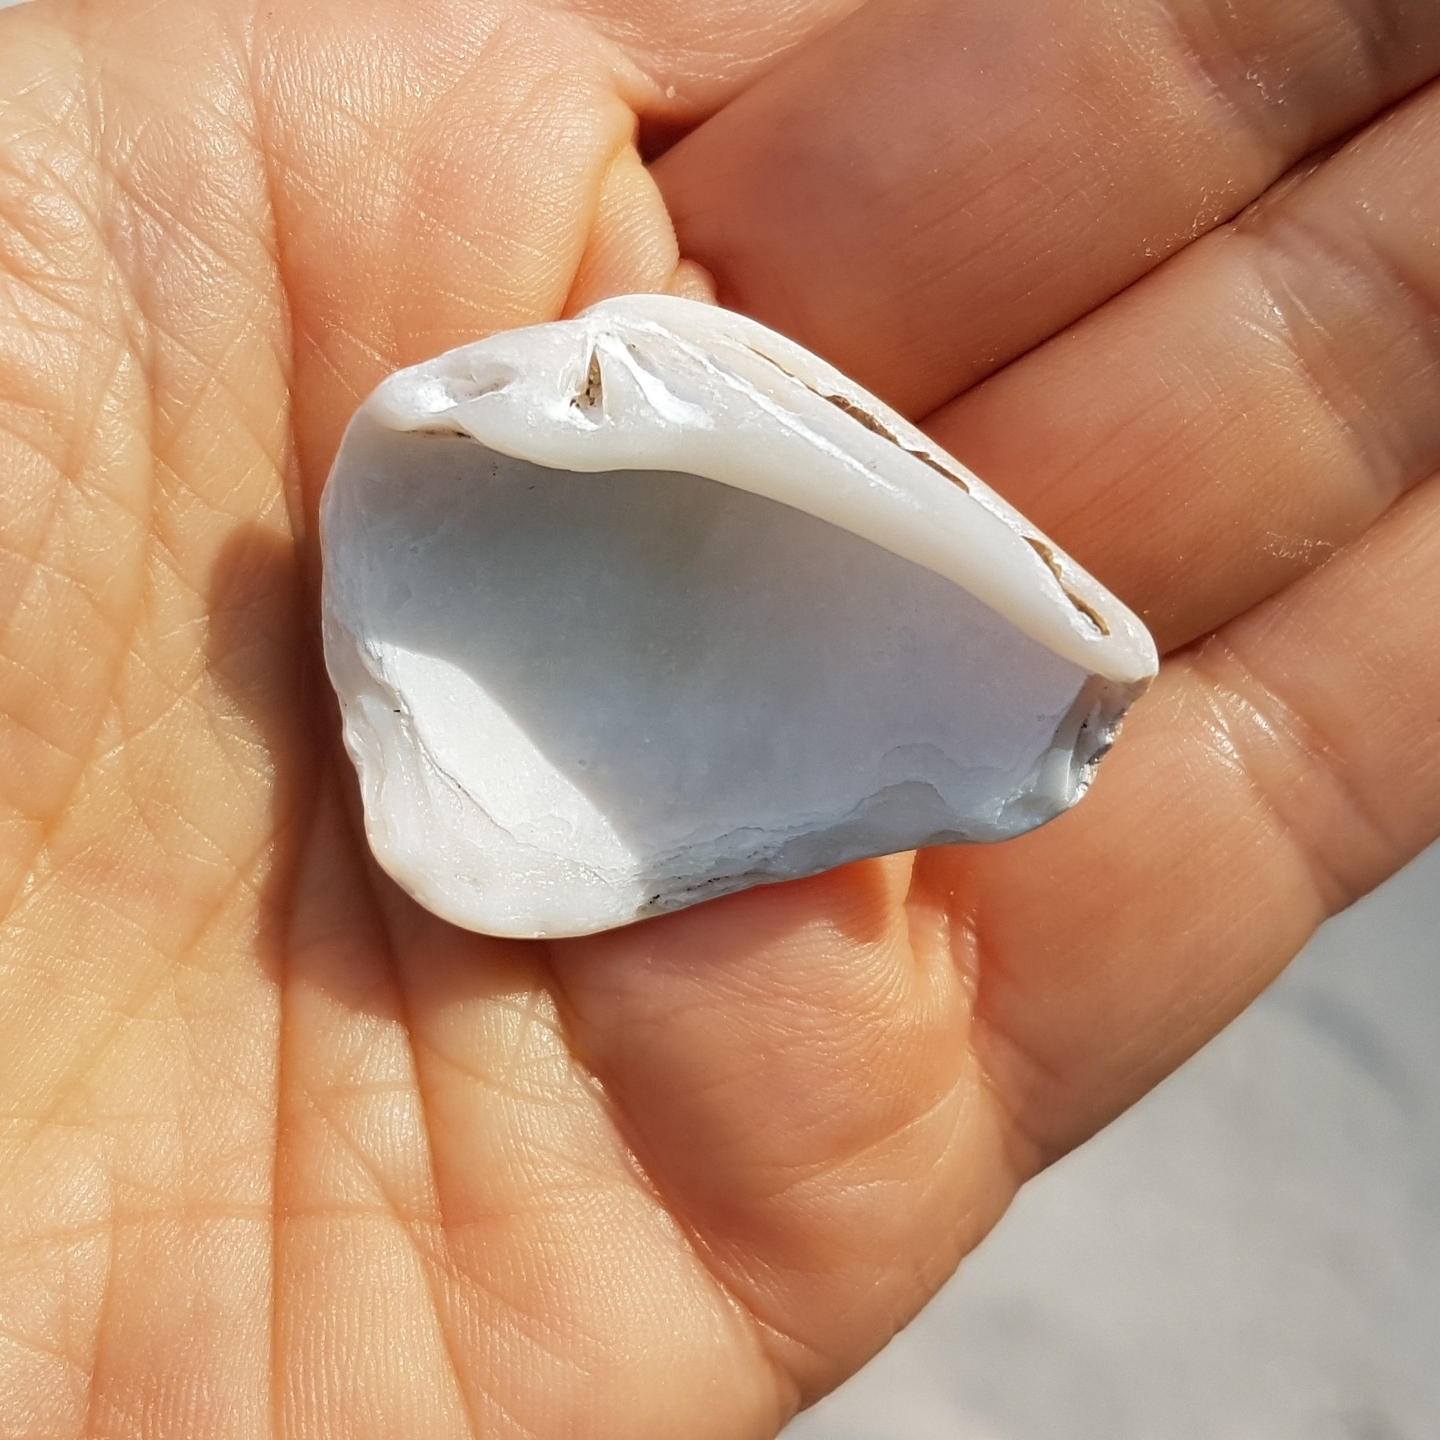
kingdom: Animalia
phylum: Mollusca
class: Bivalvia
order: Venerida
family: Veneridae
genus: Callista
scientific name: Callista chione
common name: Brown venus
